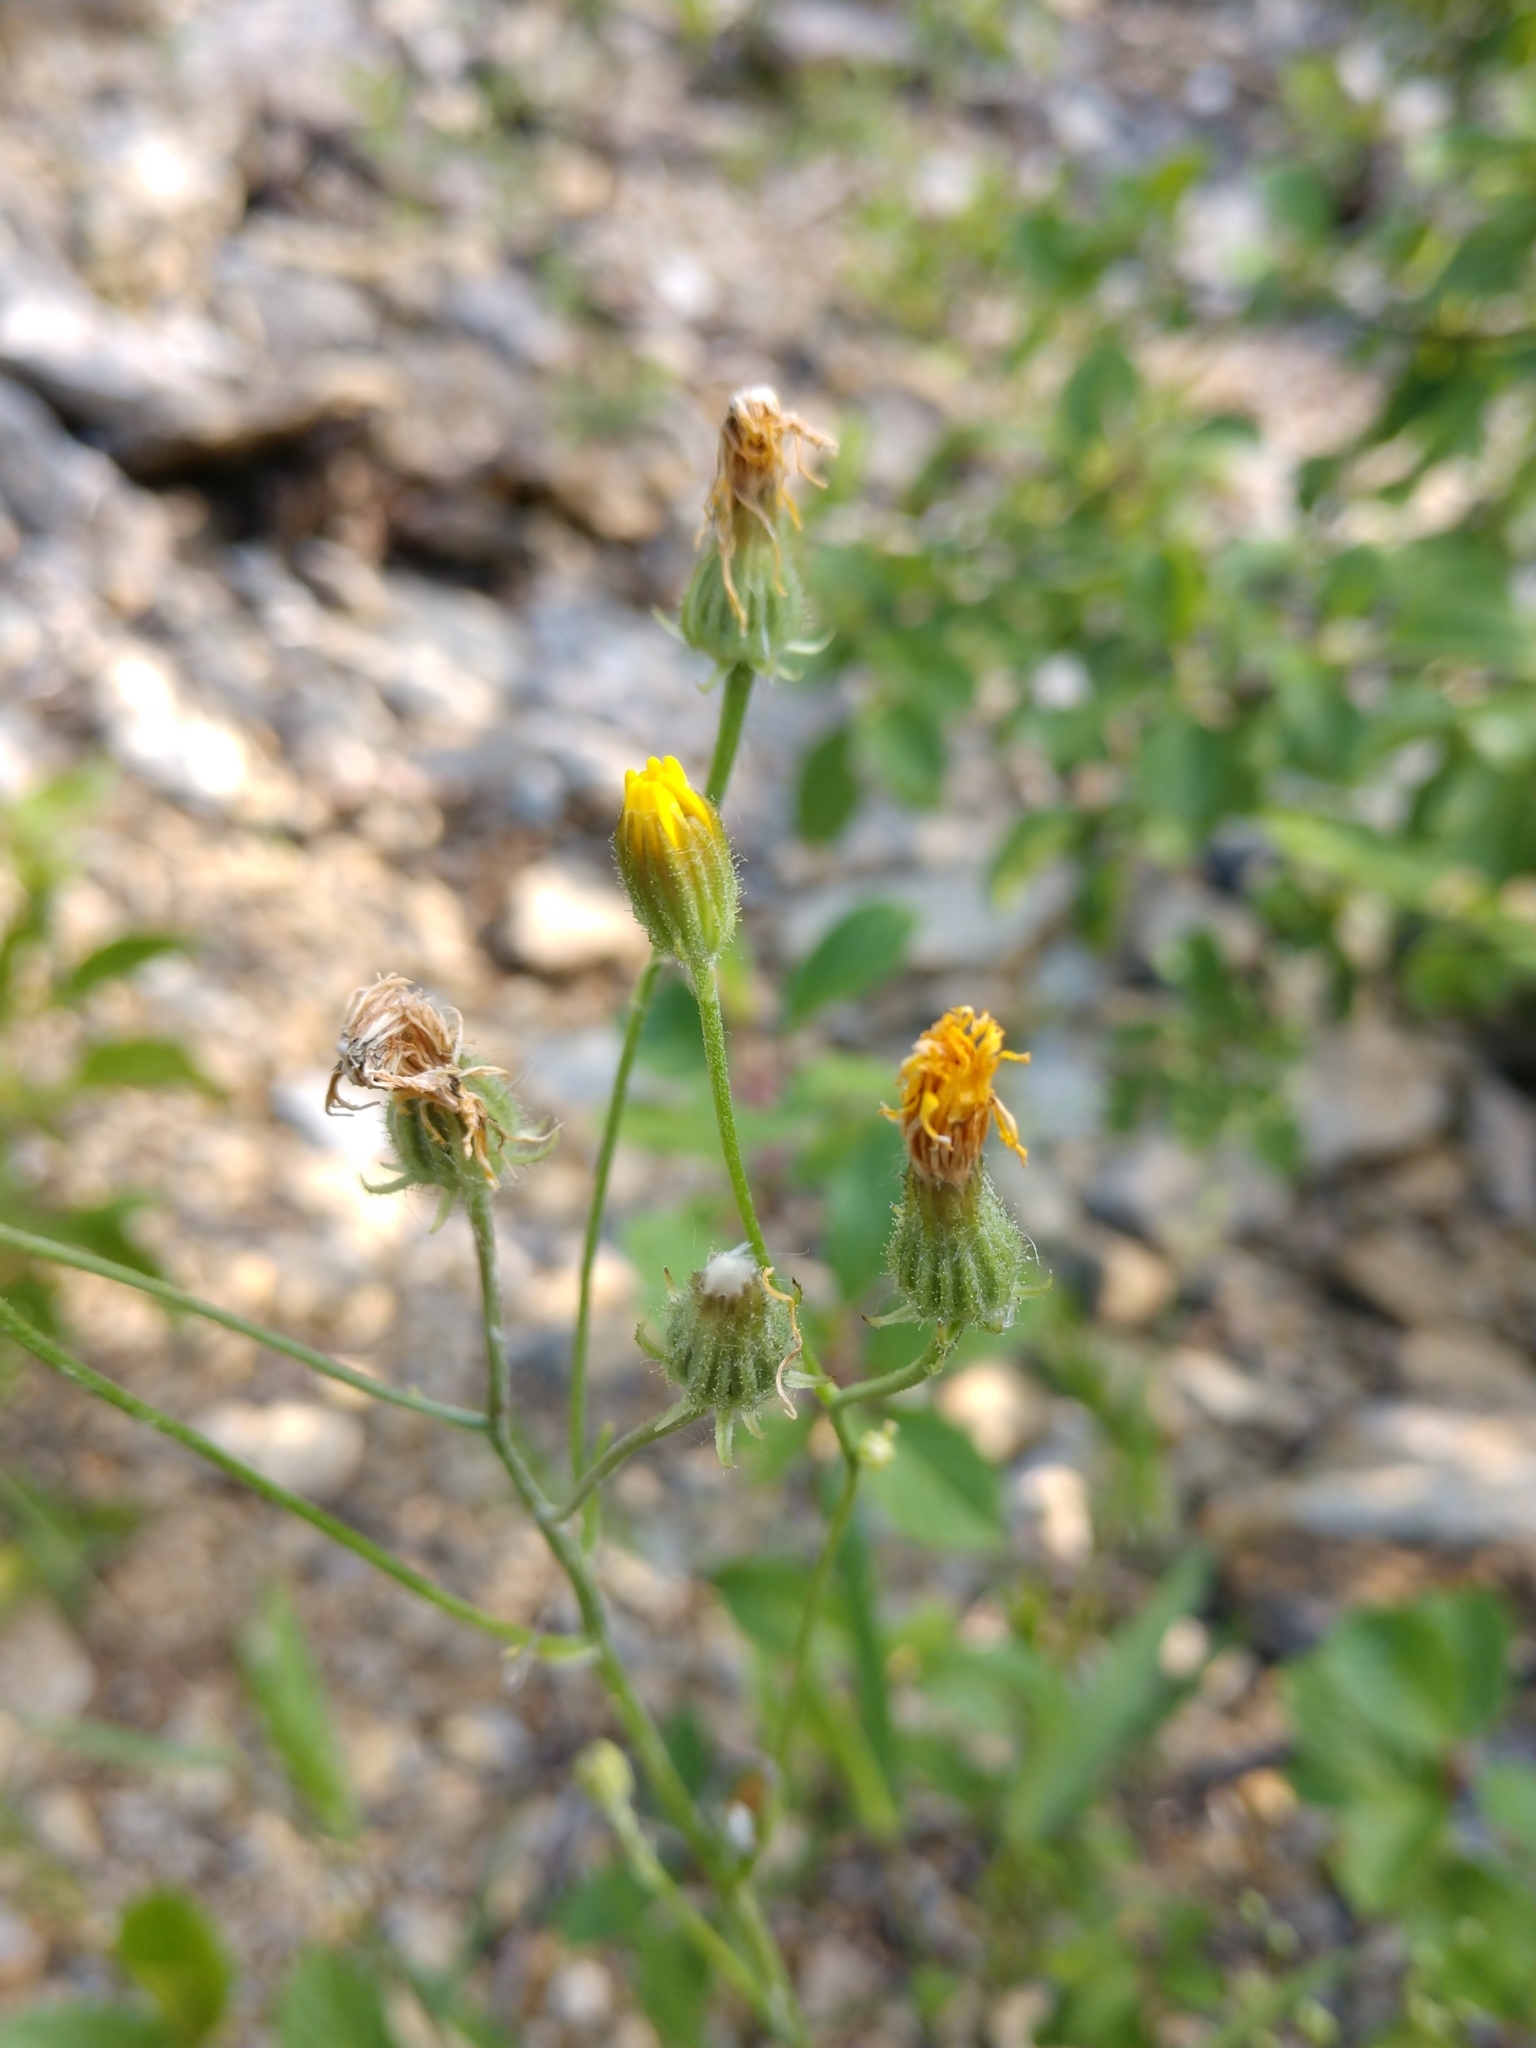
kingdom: Plantae
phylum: Tracheophyta
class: Magnoliopsida
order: Asterales
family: Asteraceae
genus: Crepis
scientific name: Crepis tectorum
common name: Narrow-leaved hawk's-beard
